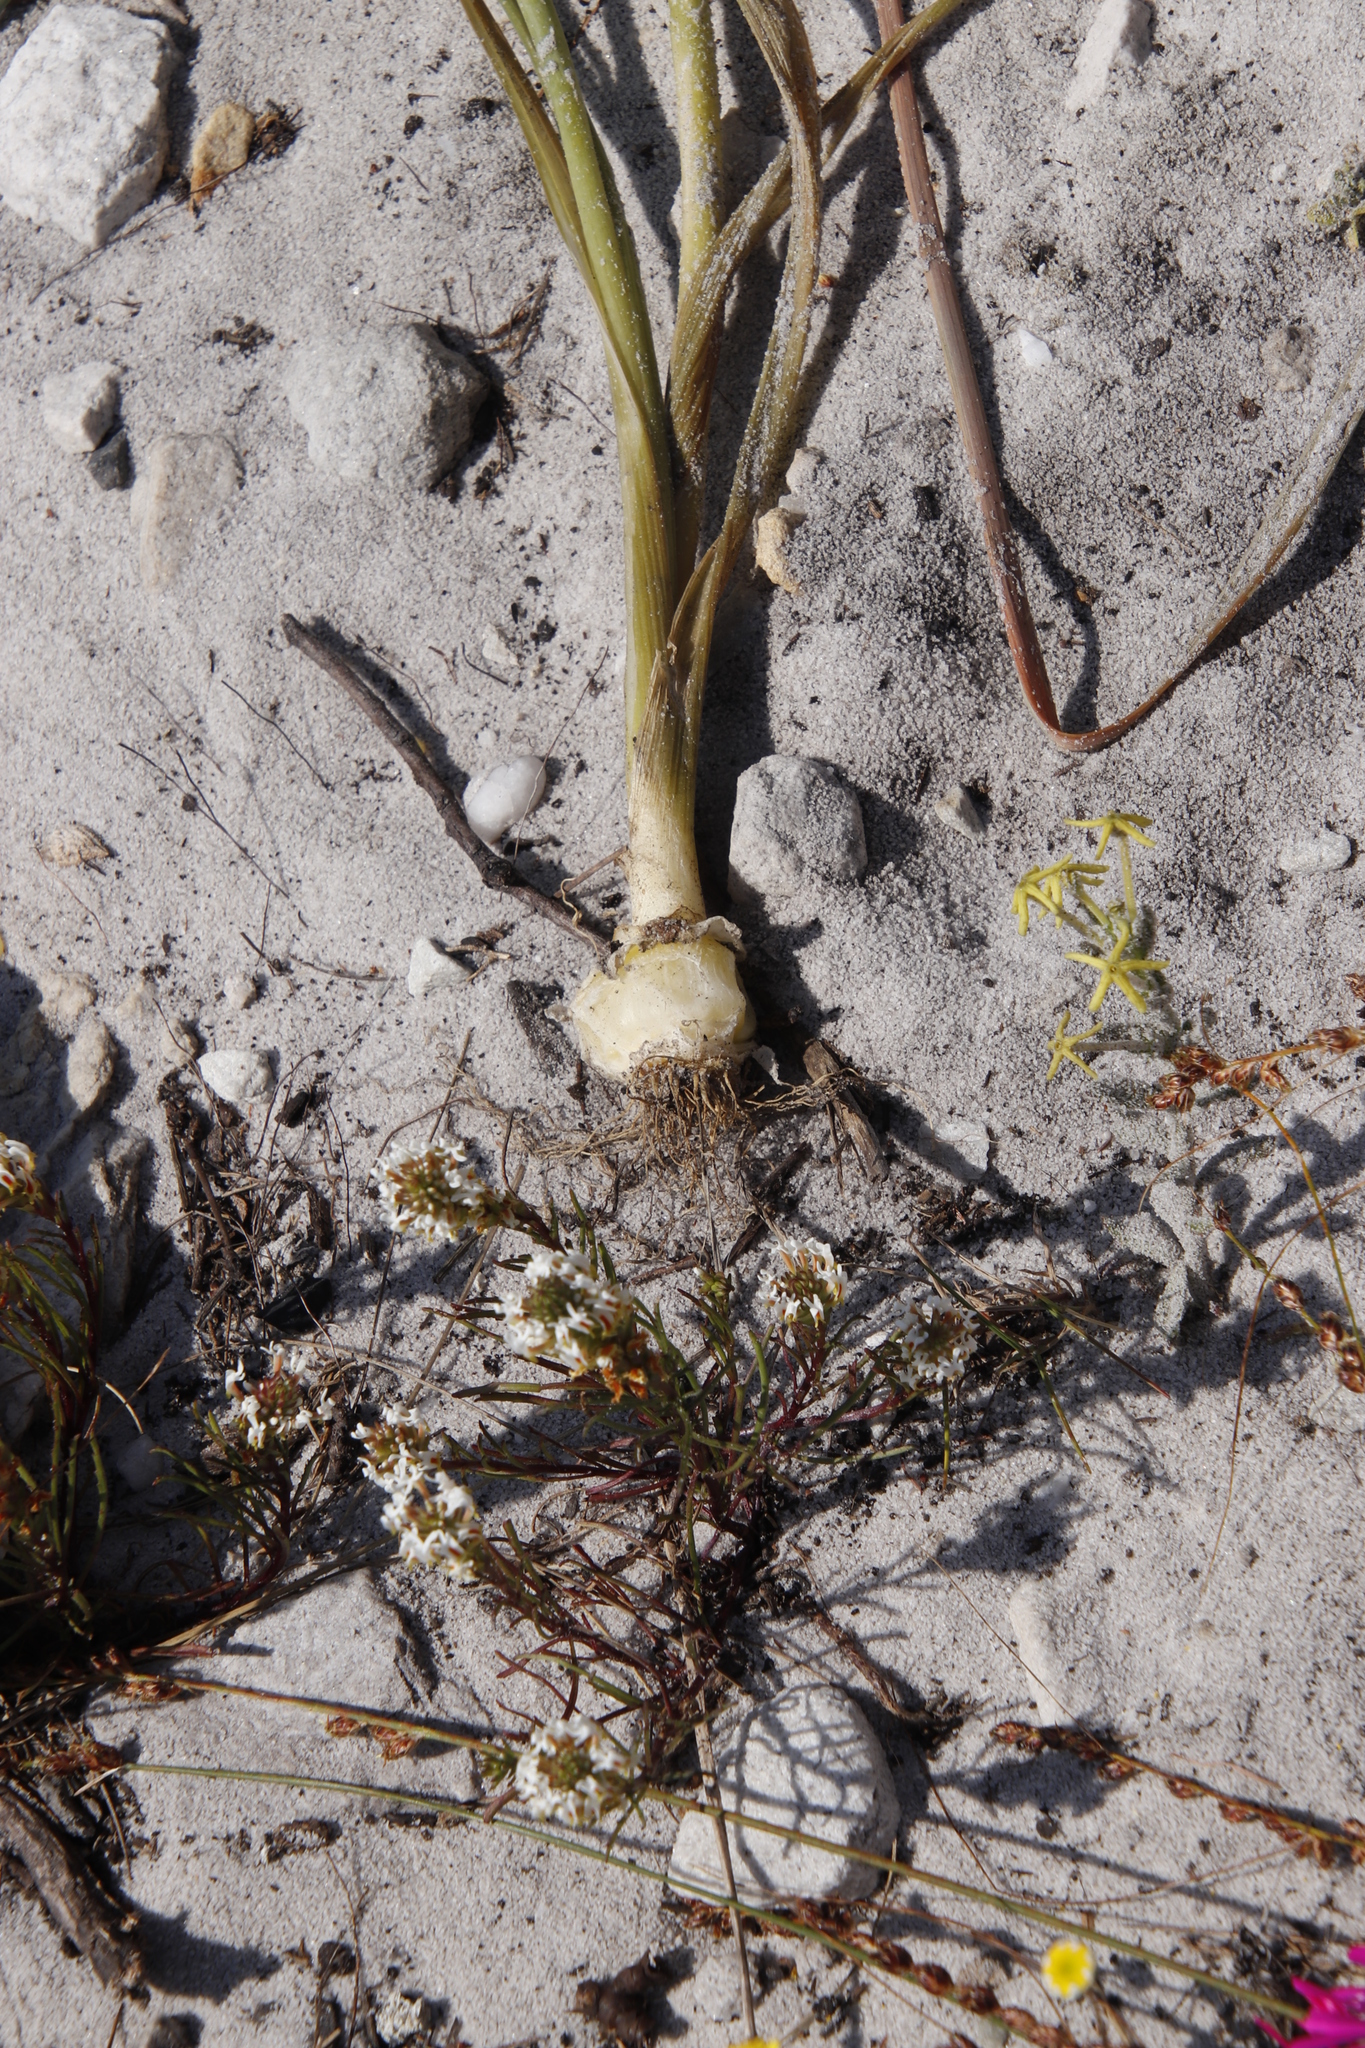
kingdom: Animalia
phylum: Chordata
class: Mammalia
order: Rodentia
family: Hystricidae
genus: Hystrix
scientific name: Hystrix africaeaustralis
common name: Cape porcupine
